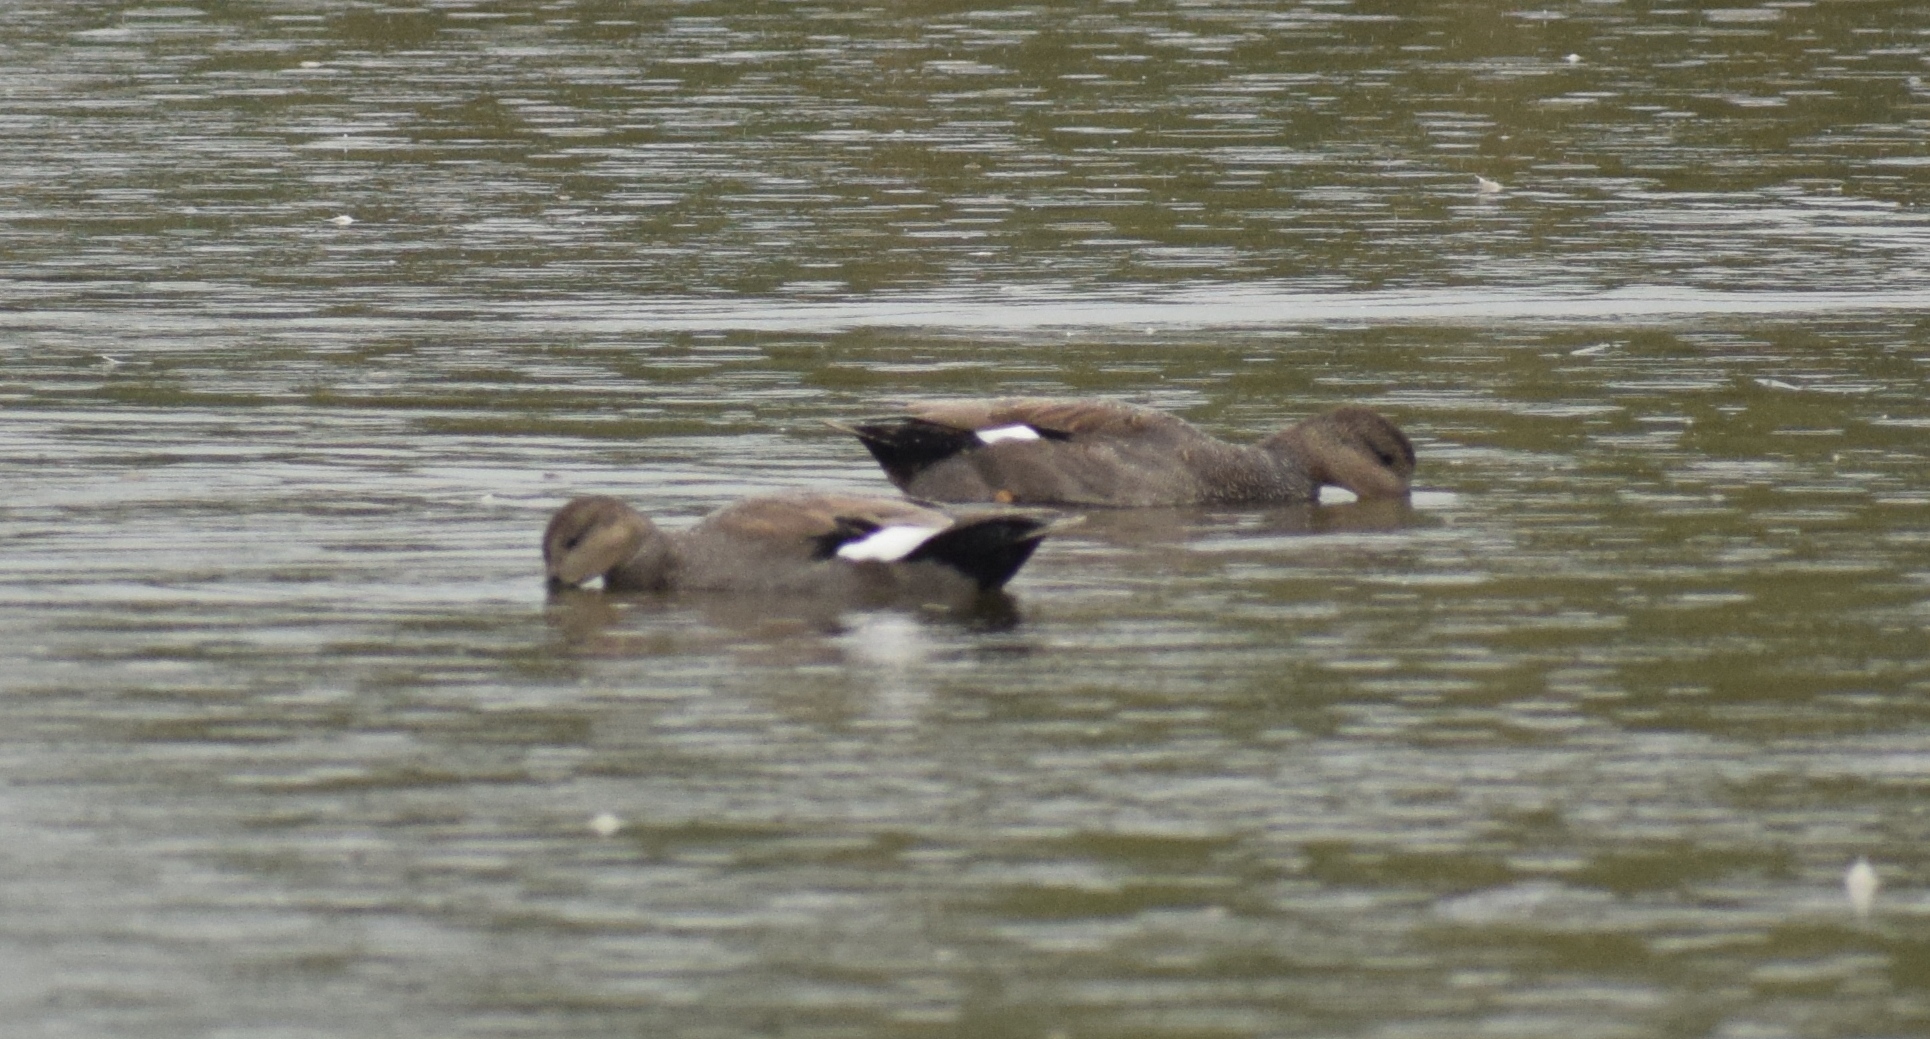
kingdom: Animalia
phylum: Chordata
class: Aves
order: Anseriformes
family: Anatidae
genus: Mareca
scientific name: Mareca strepera
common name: Gadwall
